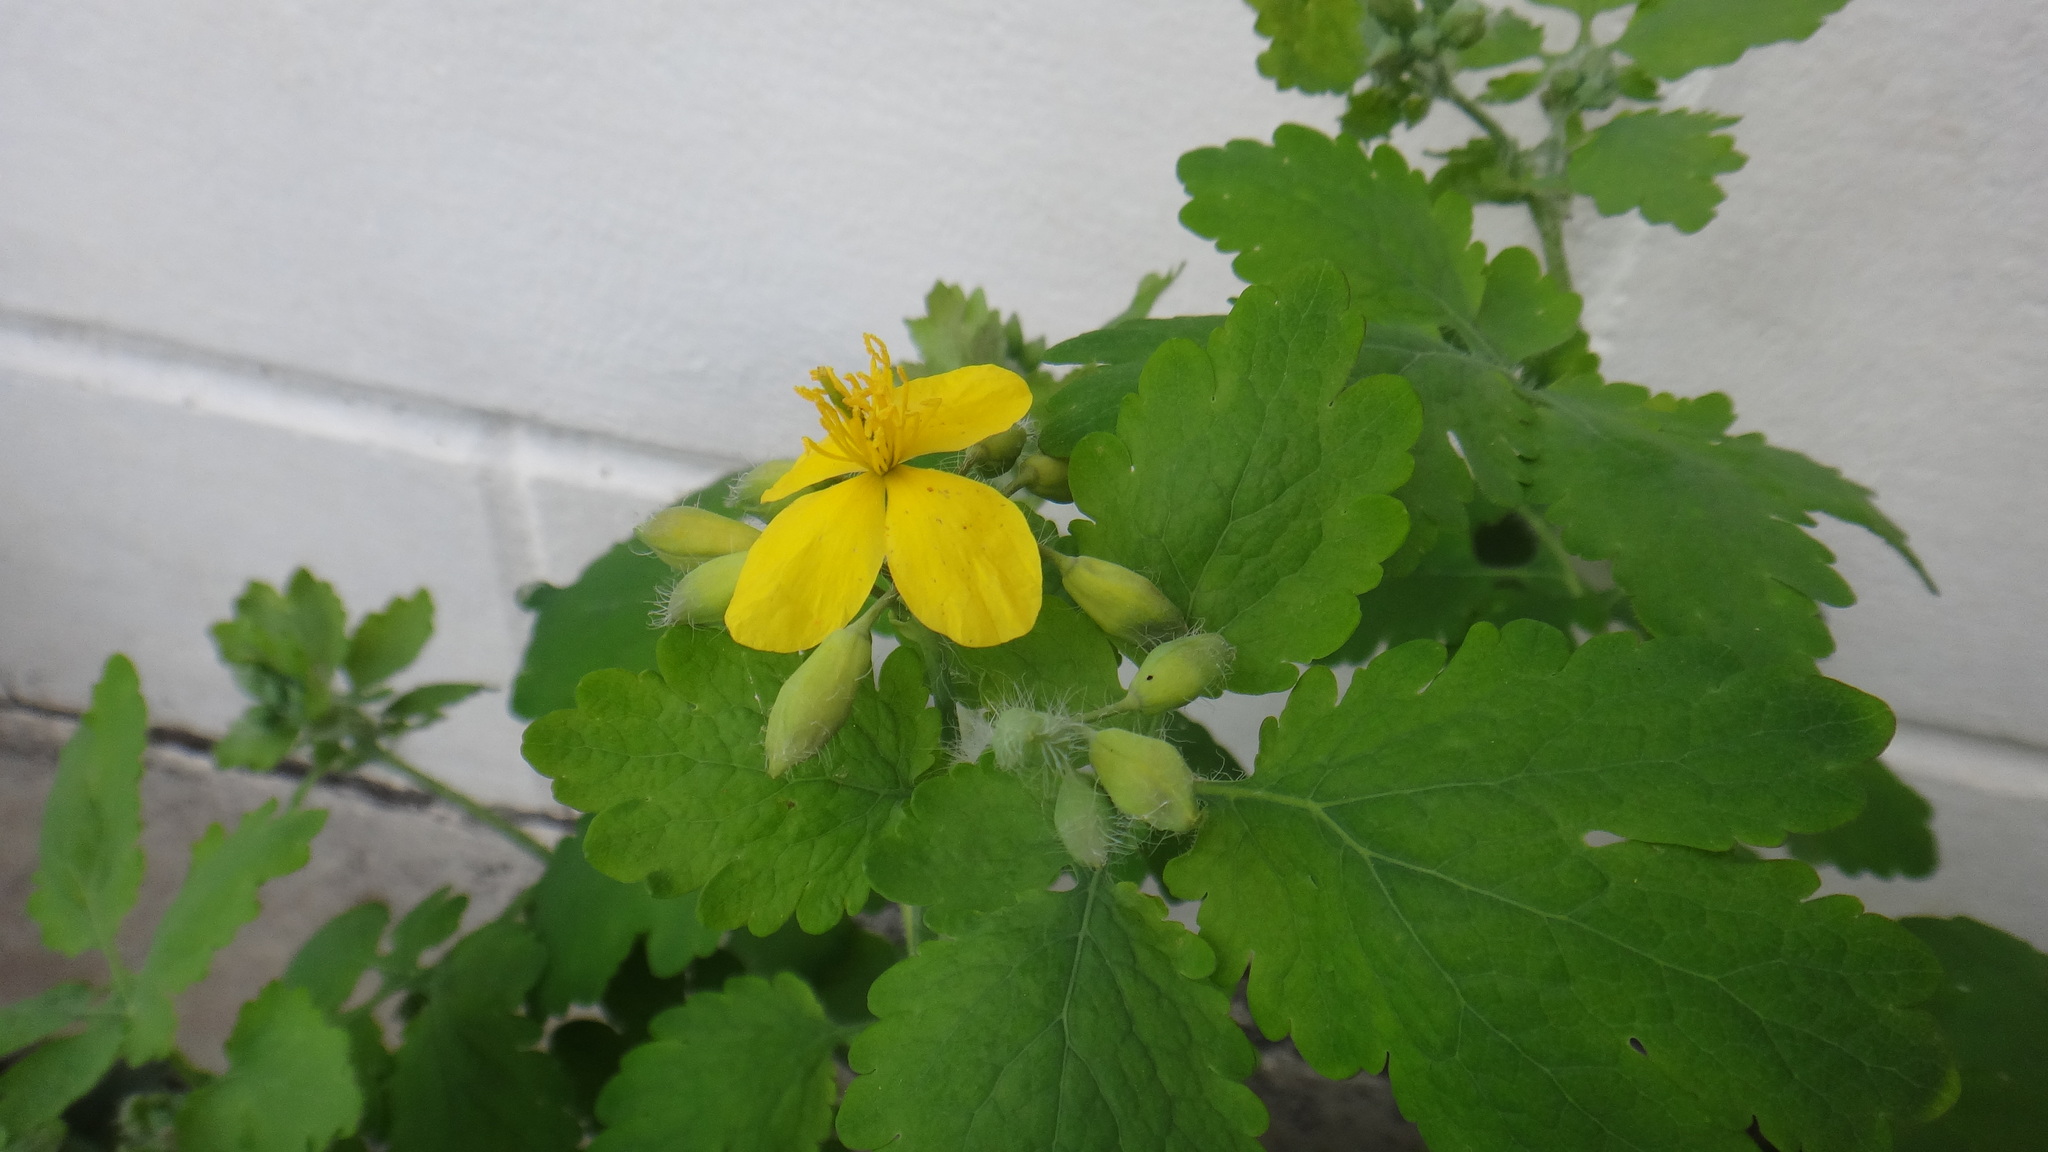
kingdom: Plantae
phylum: Tracheophyta
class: Magnoliopsida
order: Ranunculales
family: Papaveraceae
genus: Chelidonium
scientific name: Chelidonium majus
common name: Greater celandine
